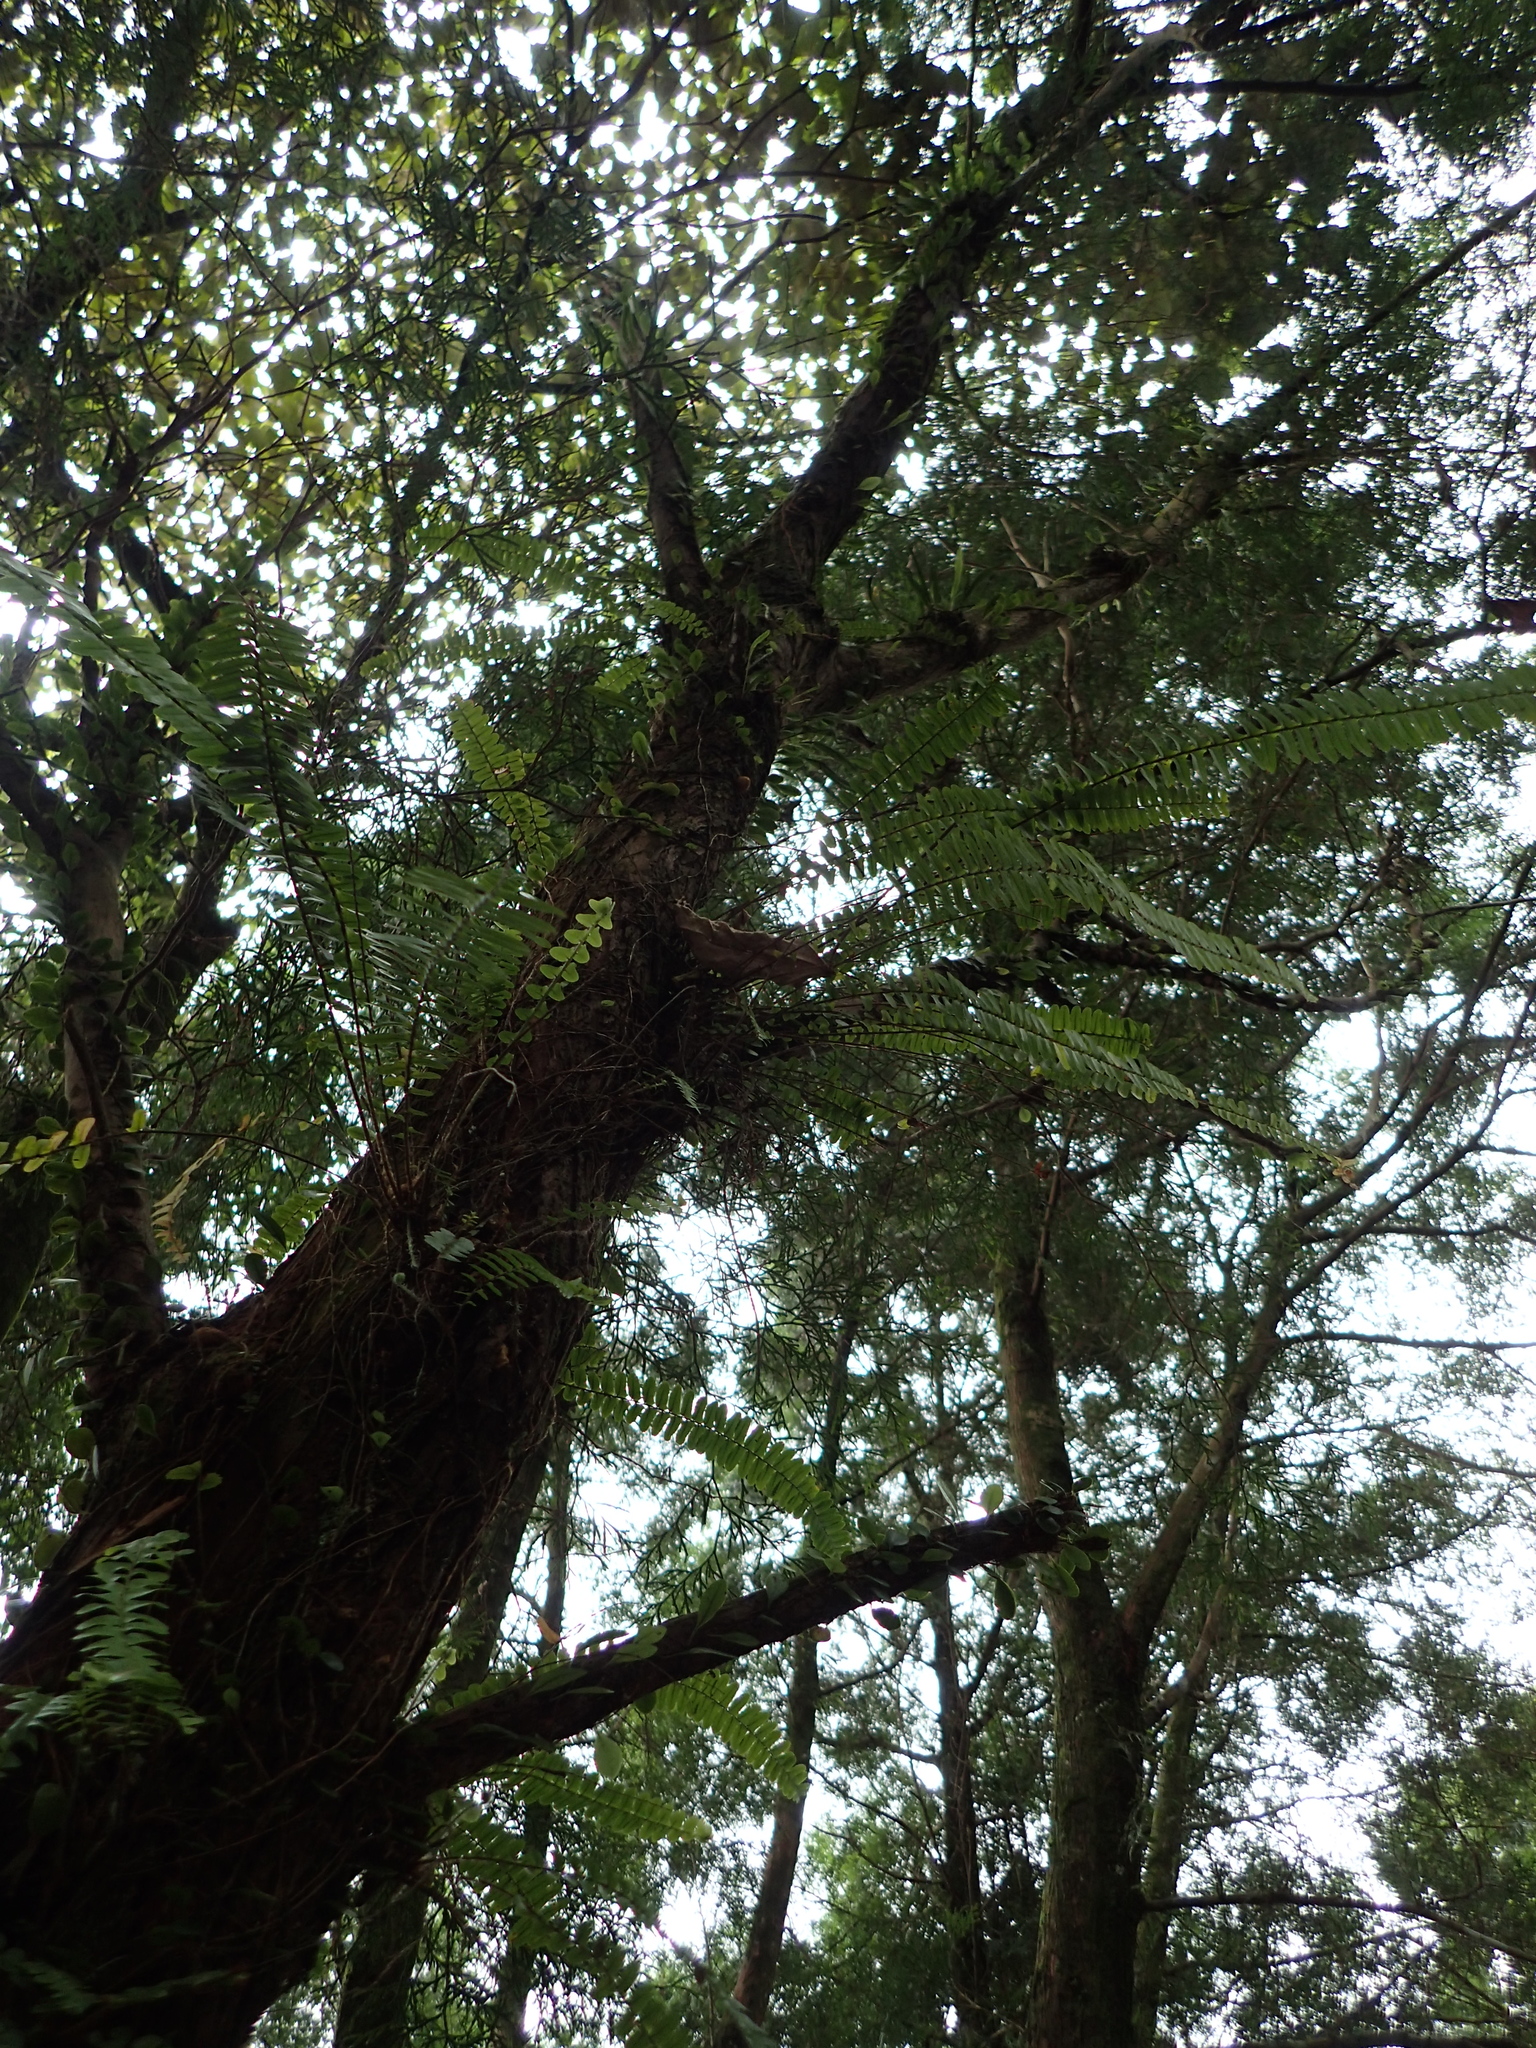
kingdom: Plantae
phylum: Tracheophyta
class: Polypodiopsida
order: Polypodiales
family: Nephrolepidaceae
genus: Nephrolepis
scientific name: Nephrolepis cordifolia
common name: Narrow swordfern
